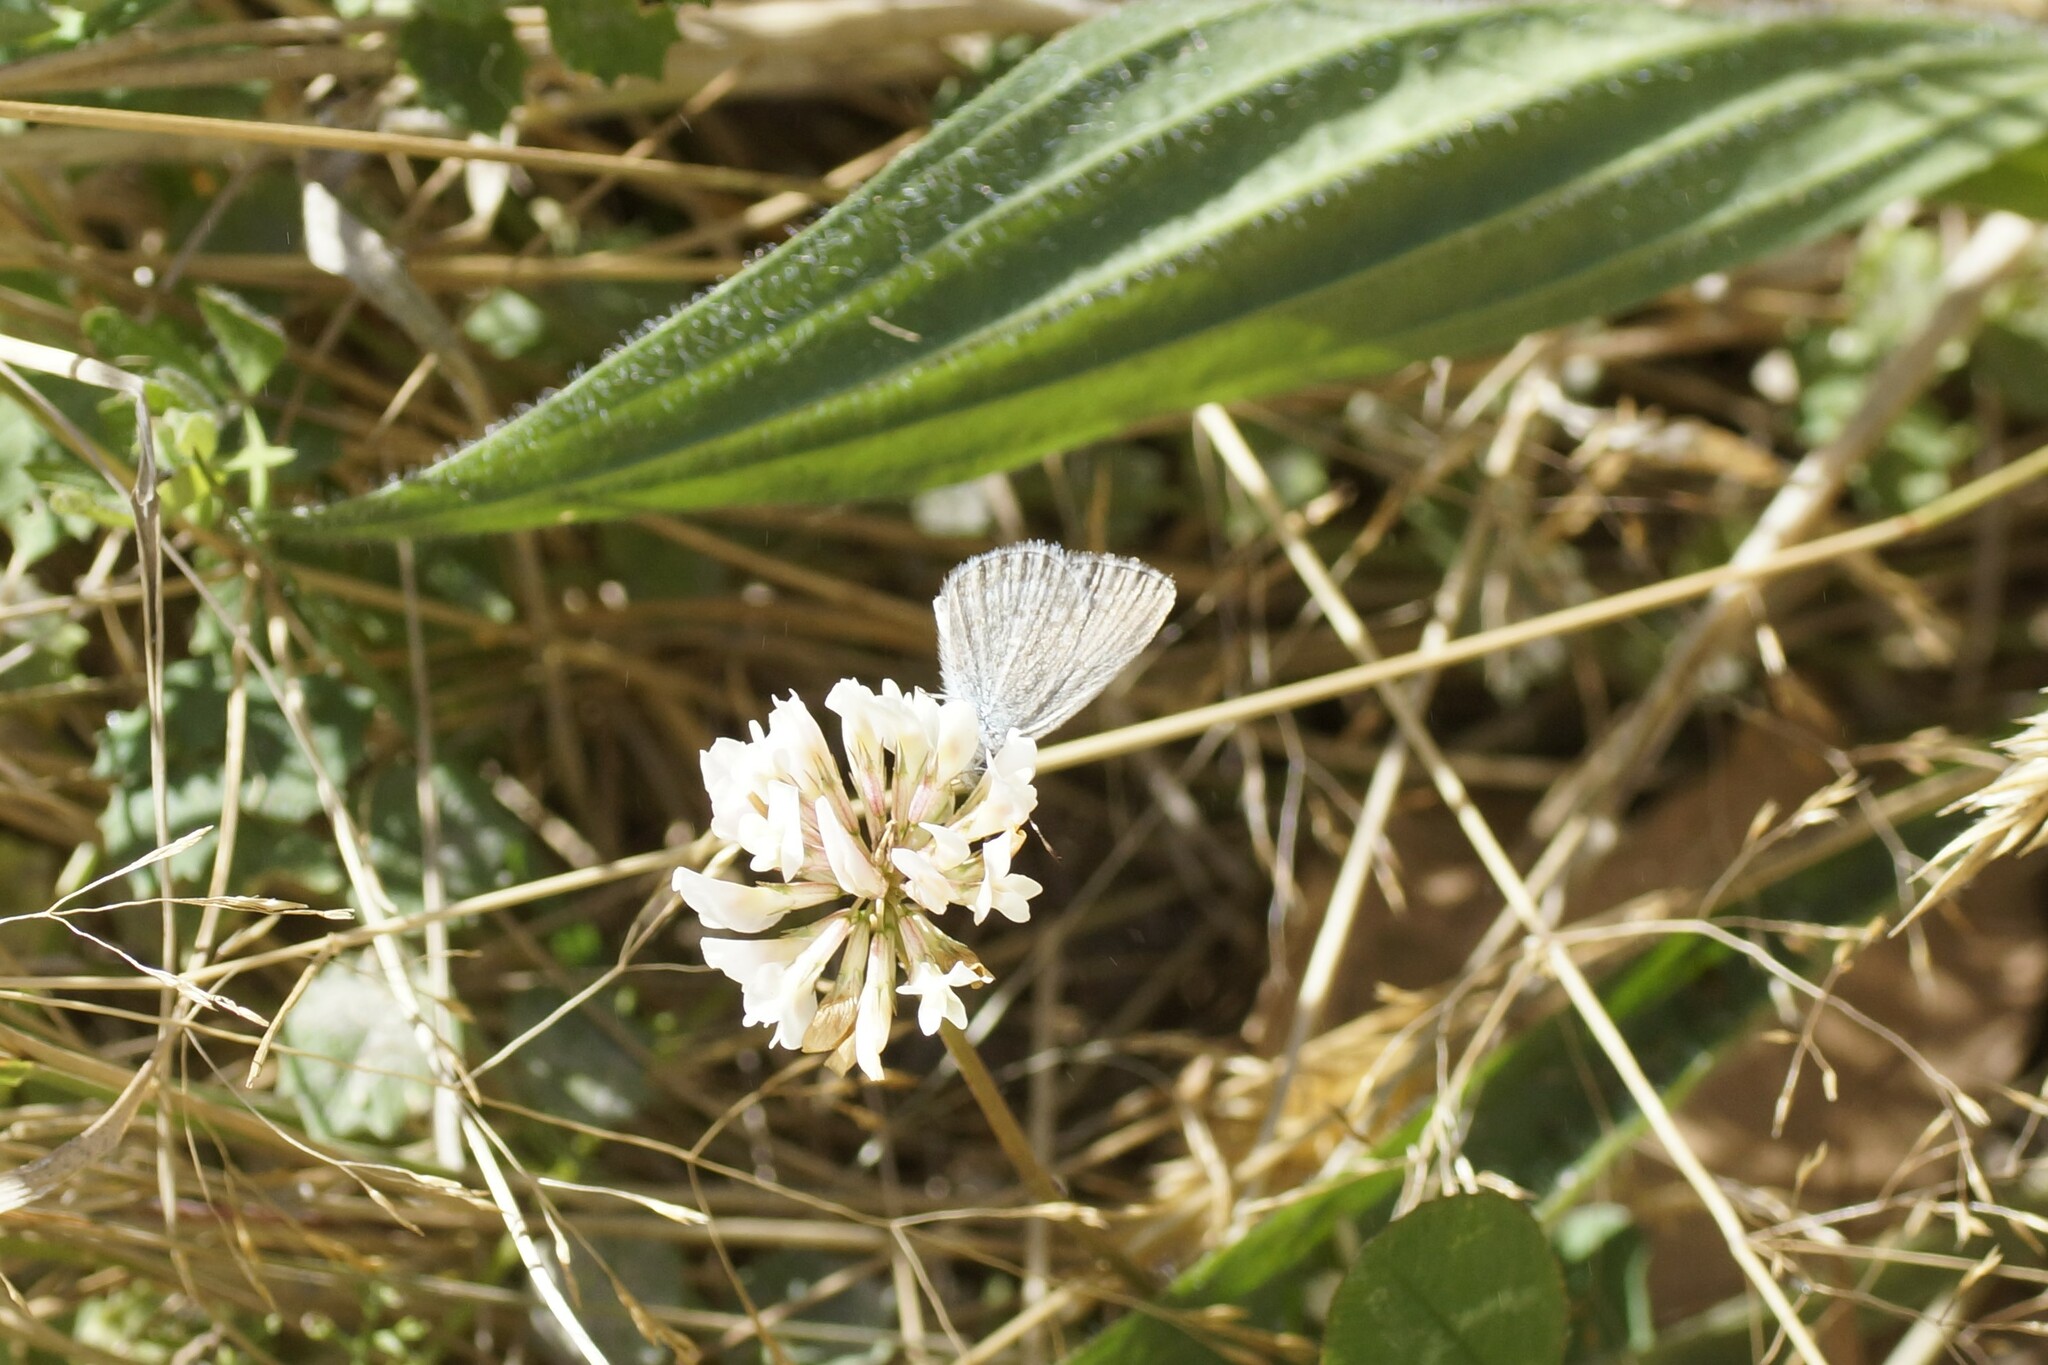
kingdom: Animalia
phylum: Arthropoda
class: Insecta
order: Lepidoptera
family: Lycaenidae
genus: Zizina
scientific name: Zizina otis
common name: Lesser grass blue
